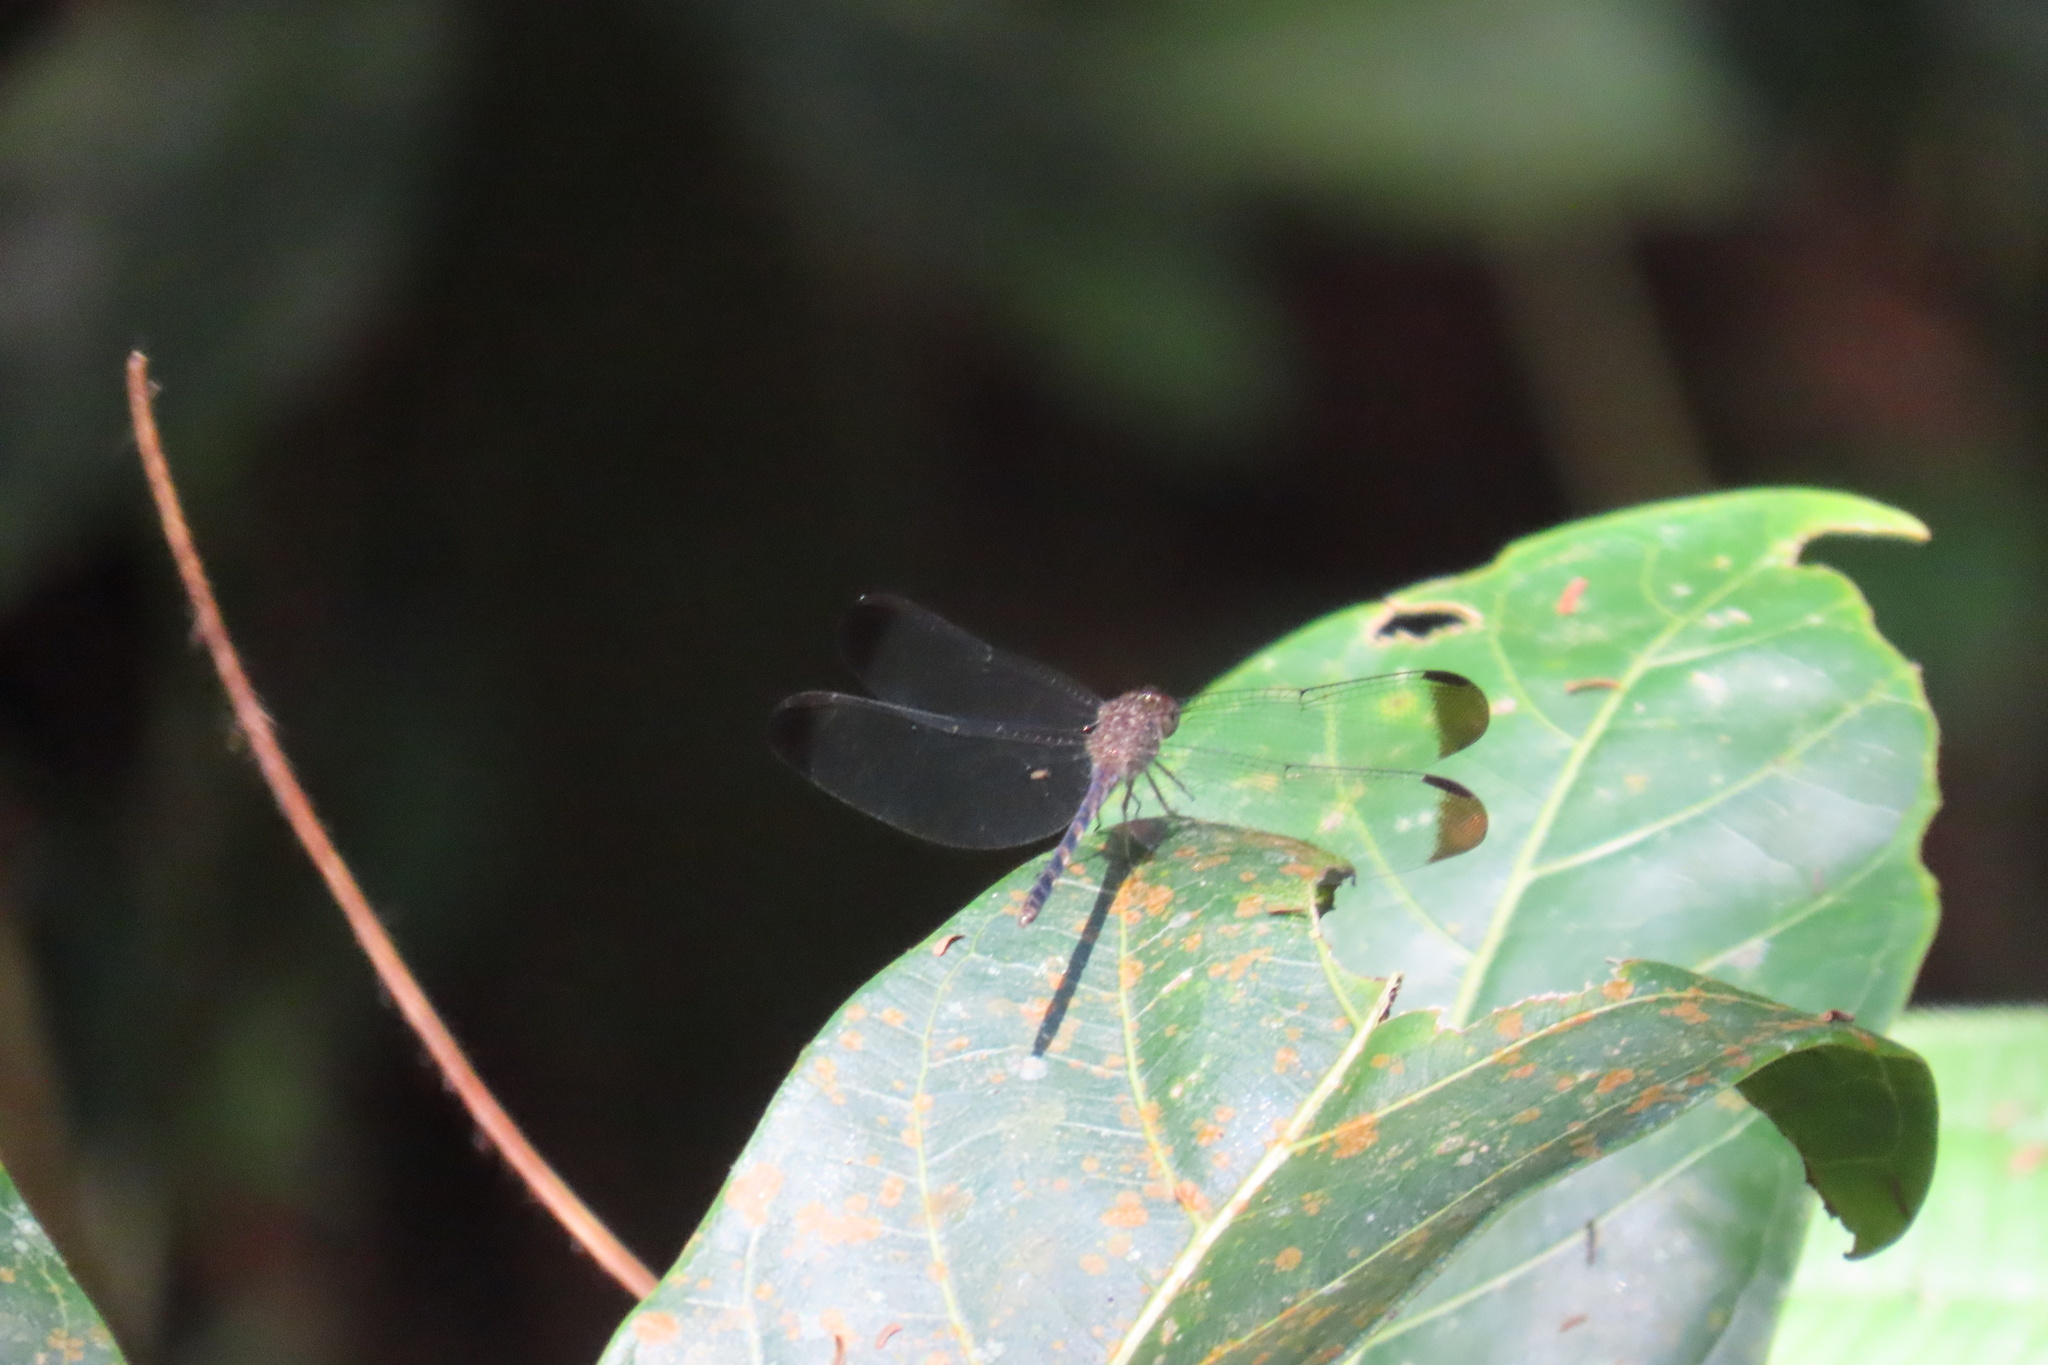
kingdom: Animalia
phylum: Arthropoda
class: Insecta
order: Odonata
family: Libellulidae
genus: Uracis
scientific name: Uracis imbuta
